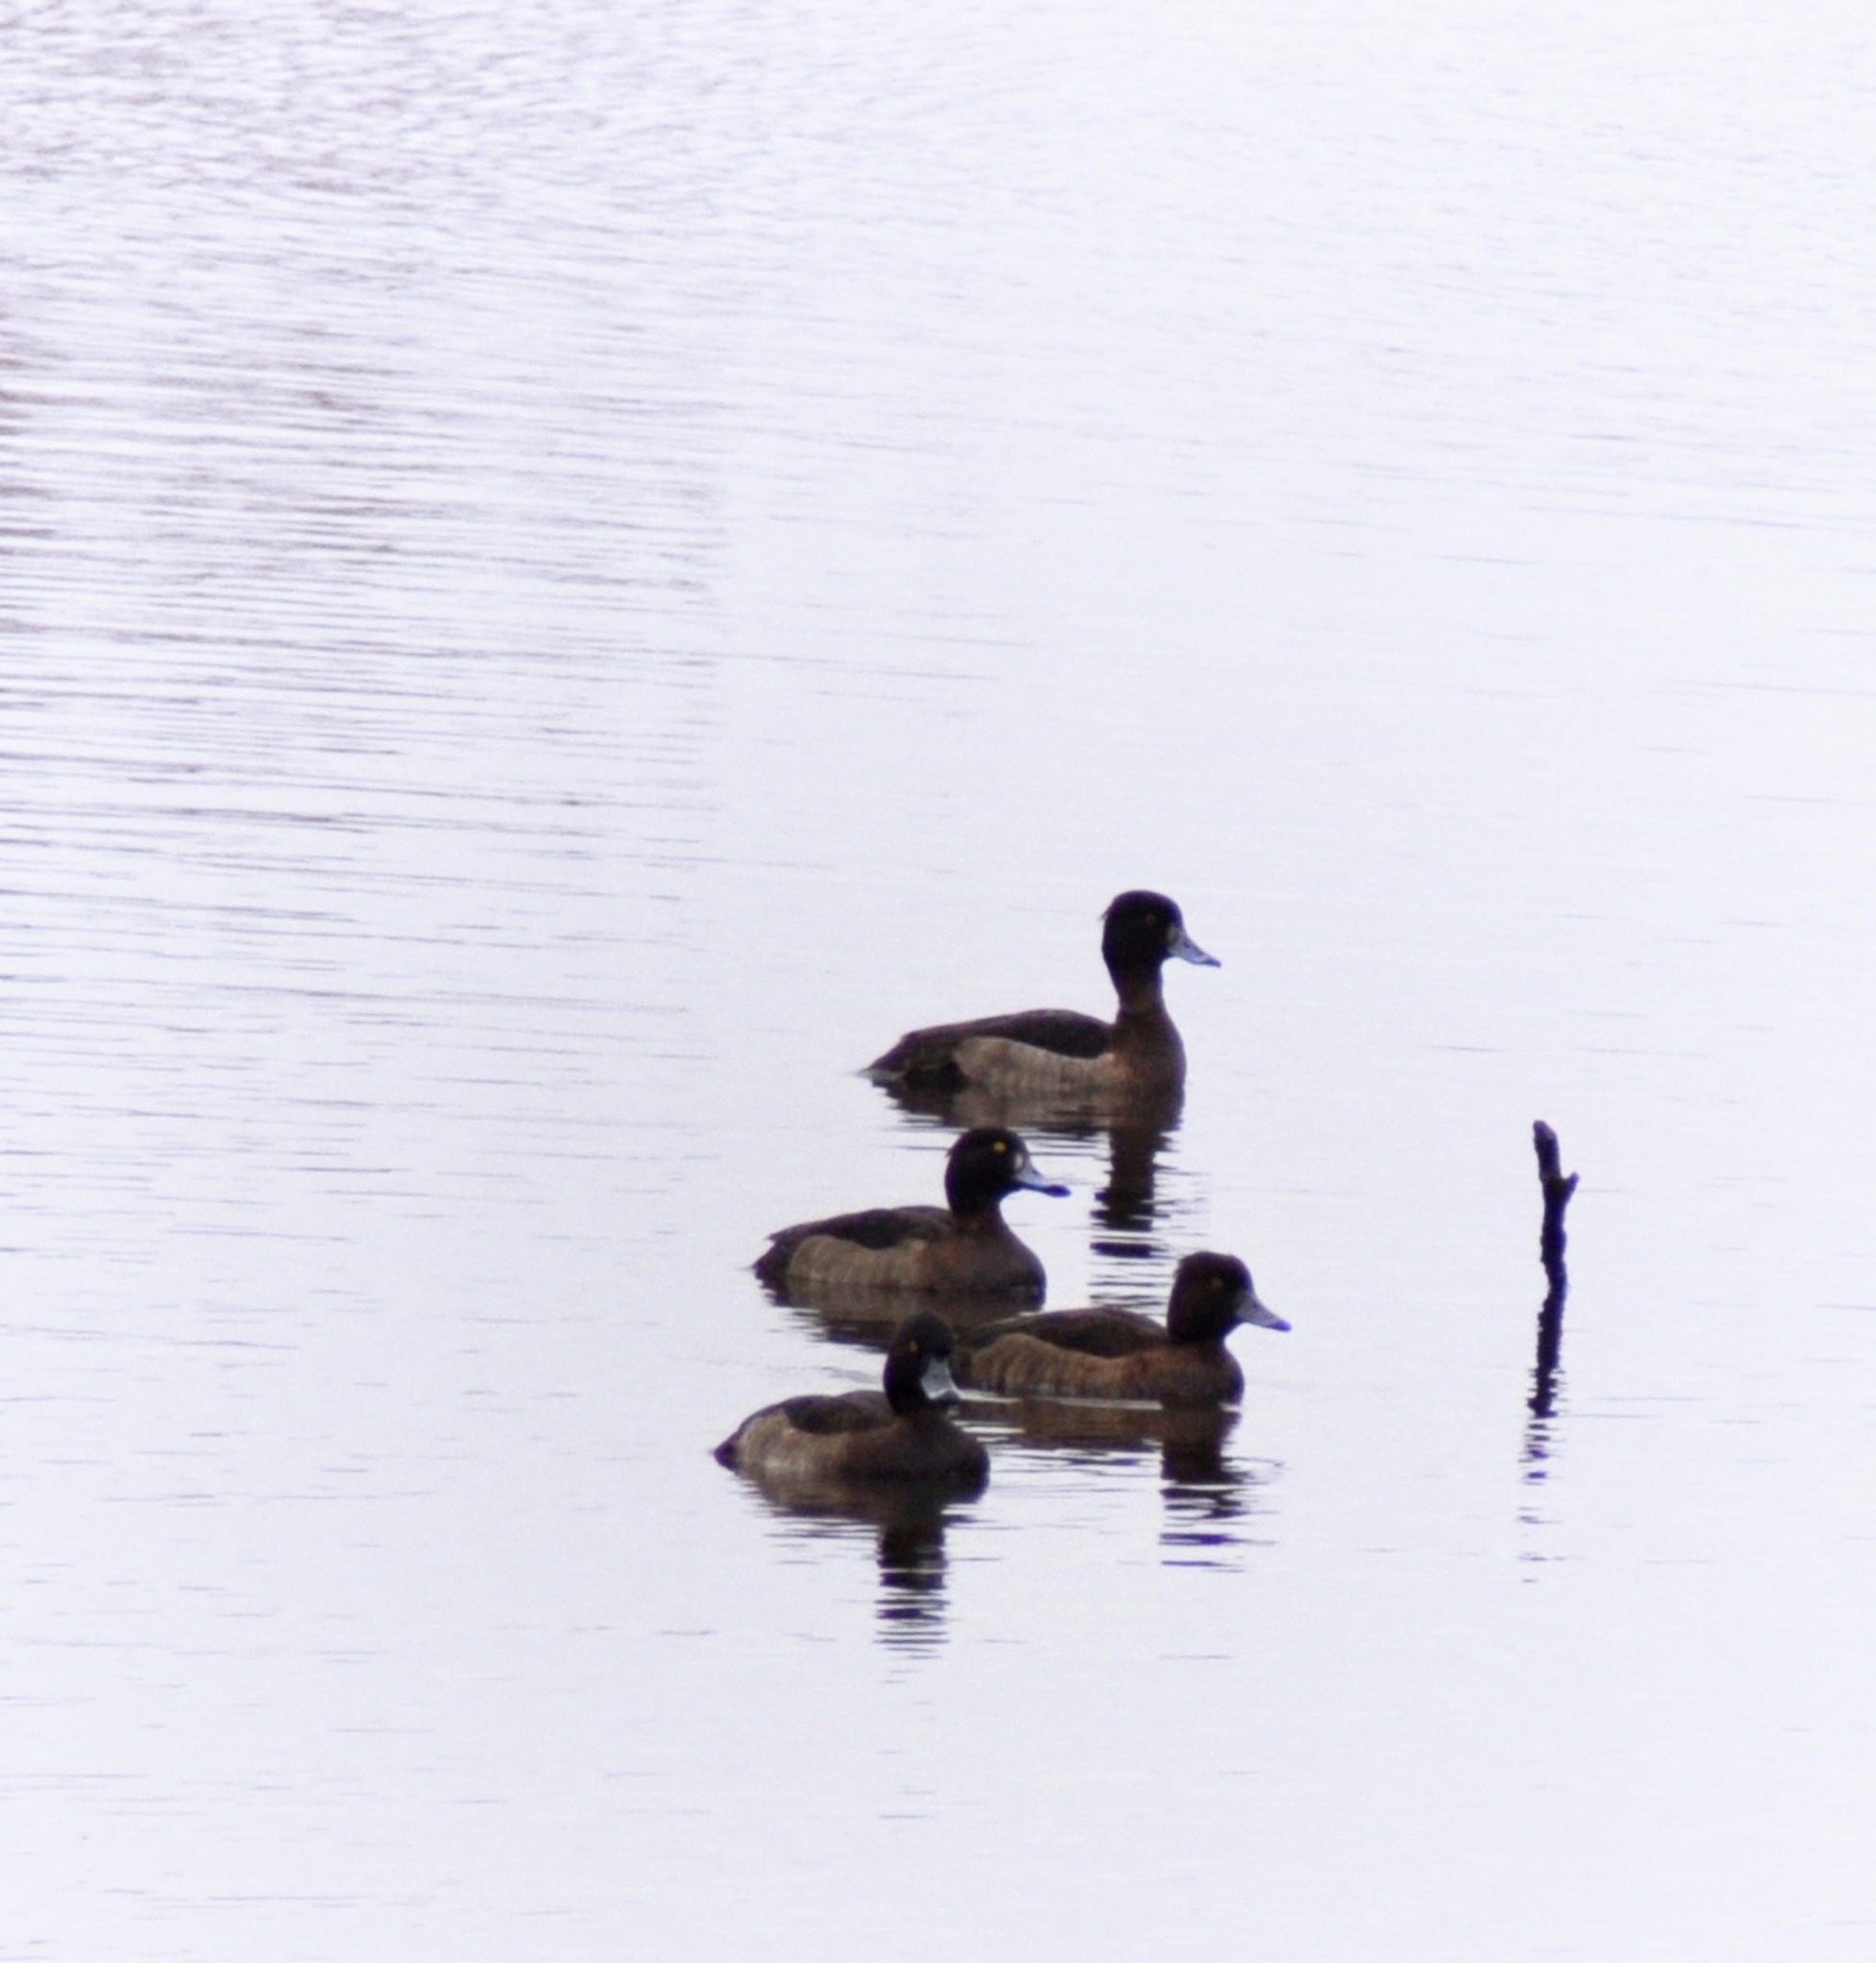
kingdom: Animalia
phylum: Chordata
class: Aves
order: Anseriformes
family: Anatidae
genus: Aythya
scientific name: Aythya fuligula
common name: Tufted duck
